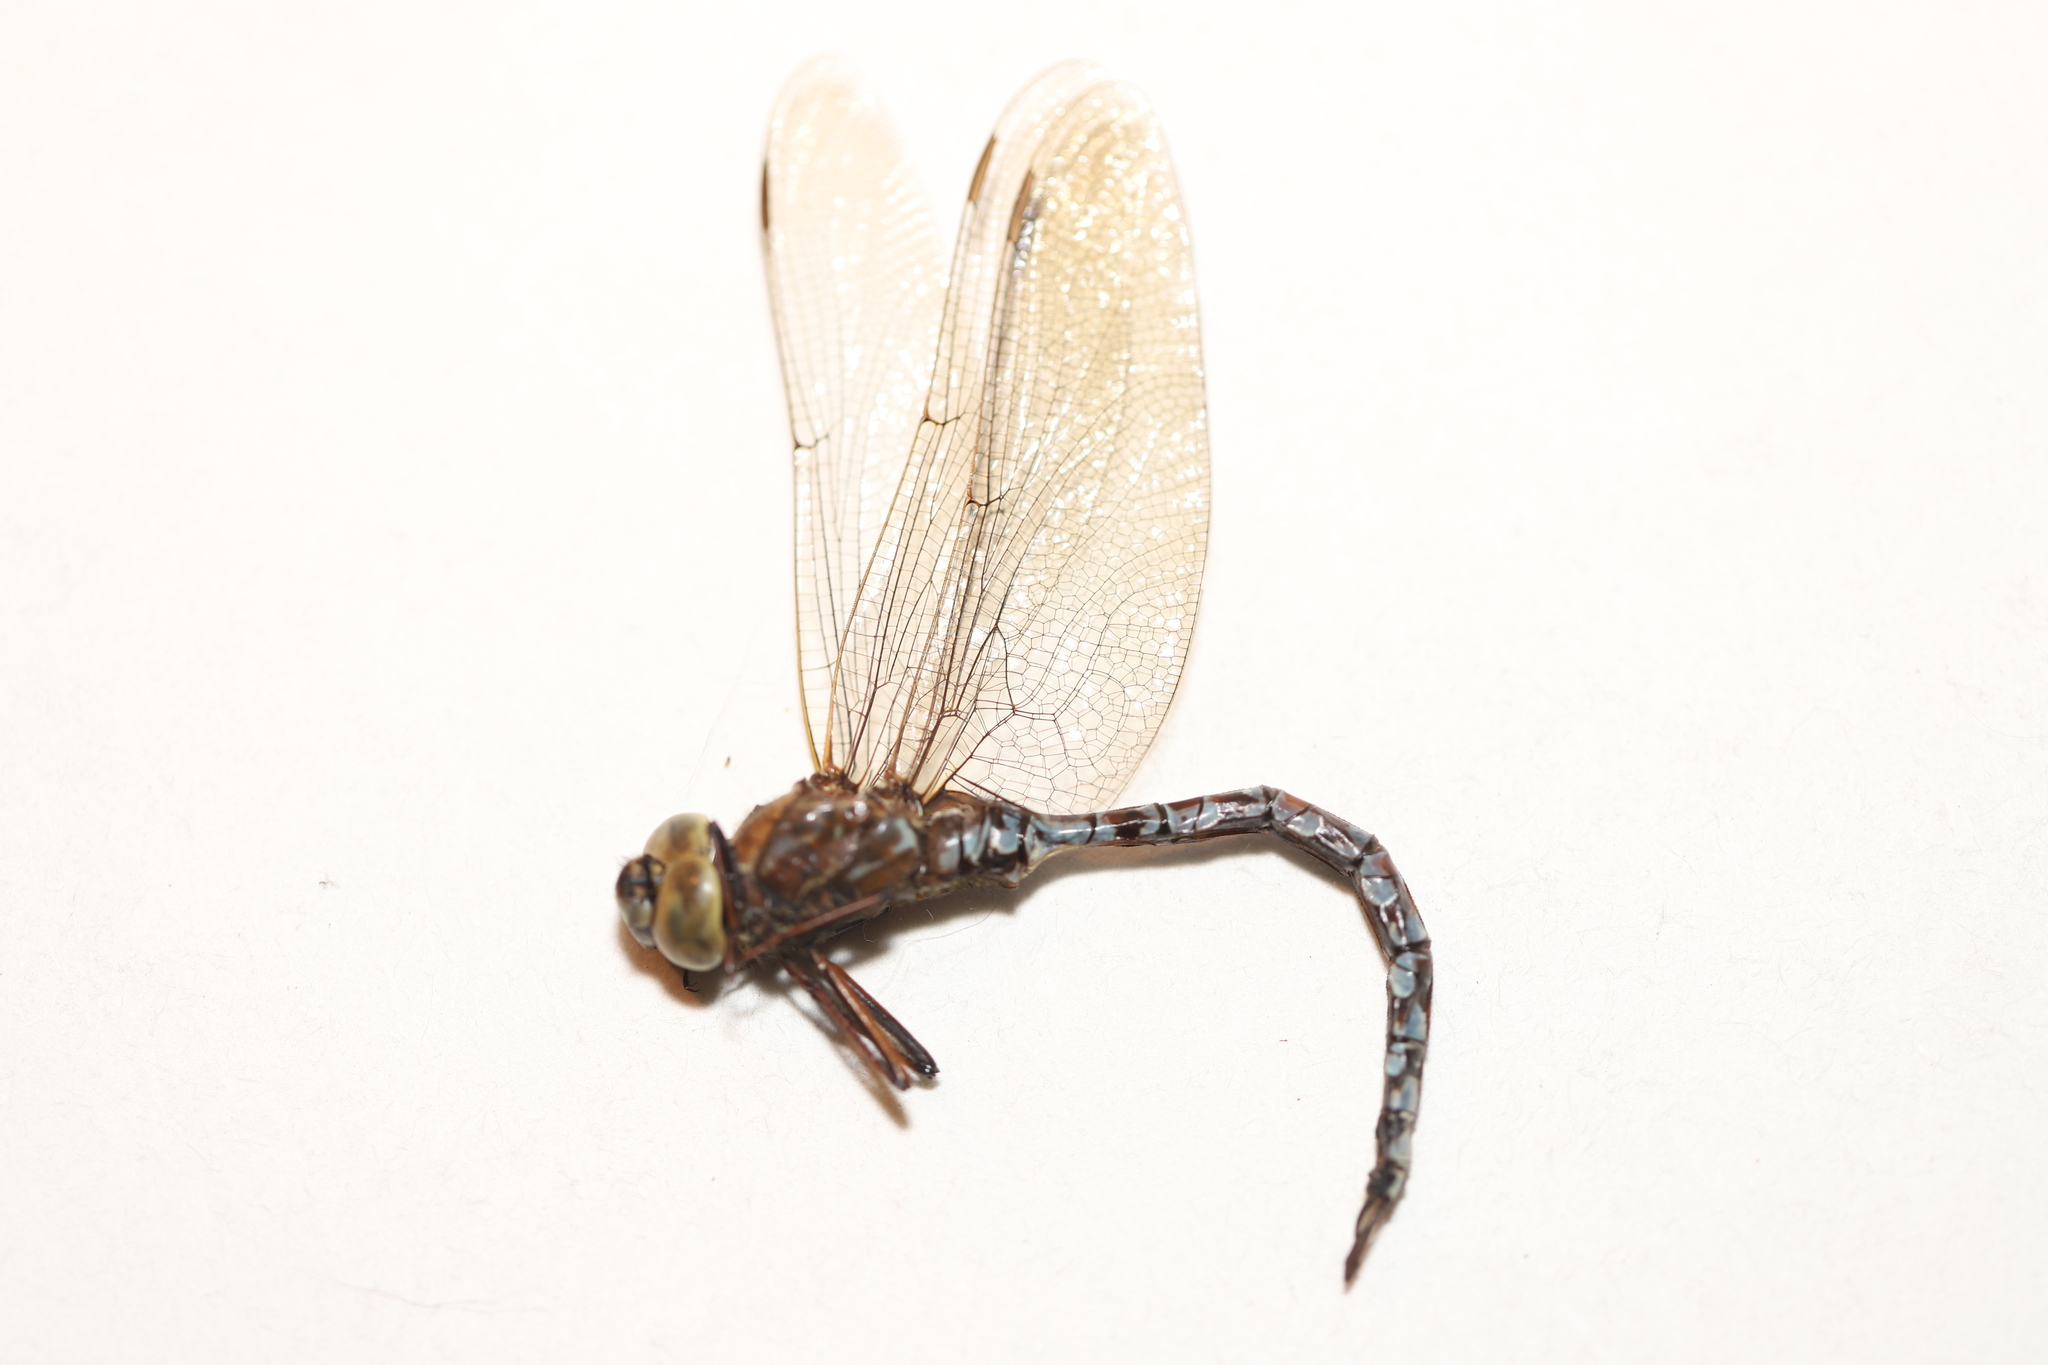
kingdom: Animalia
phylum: Arthropoda
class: Insecta
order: Odonata
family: Aeshnidae
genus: Aeshna
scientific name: Aeshna sitchensis
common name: Zigzag darner
